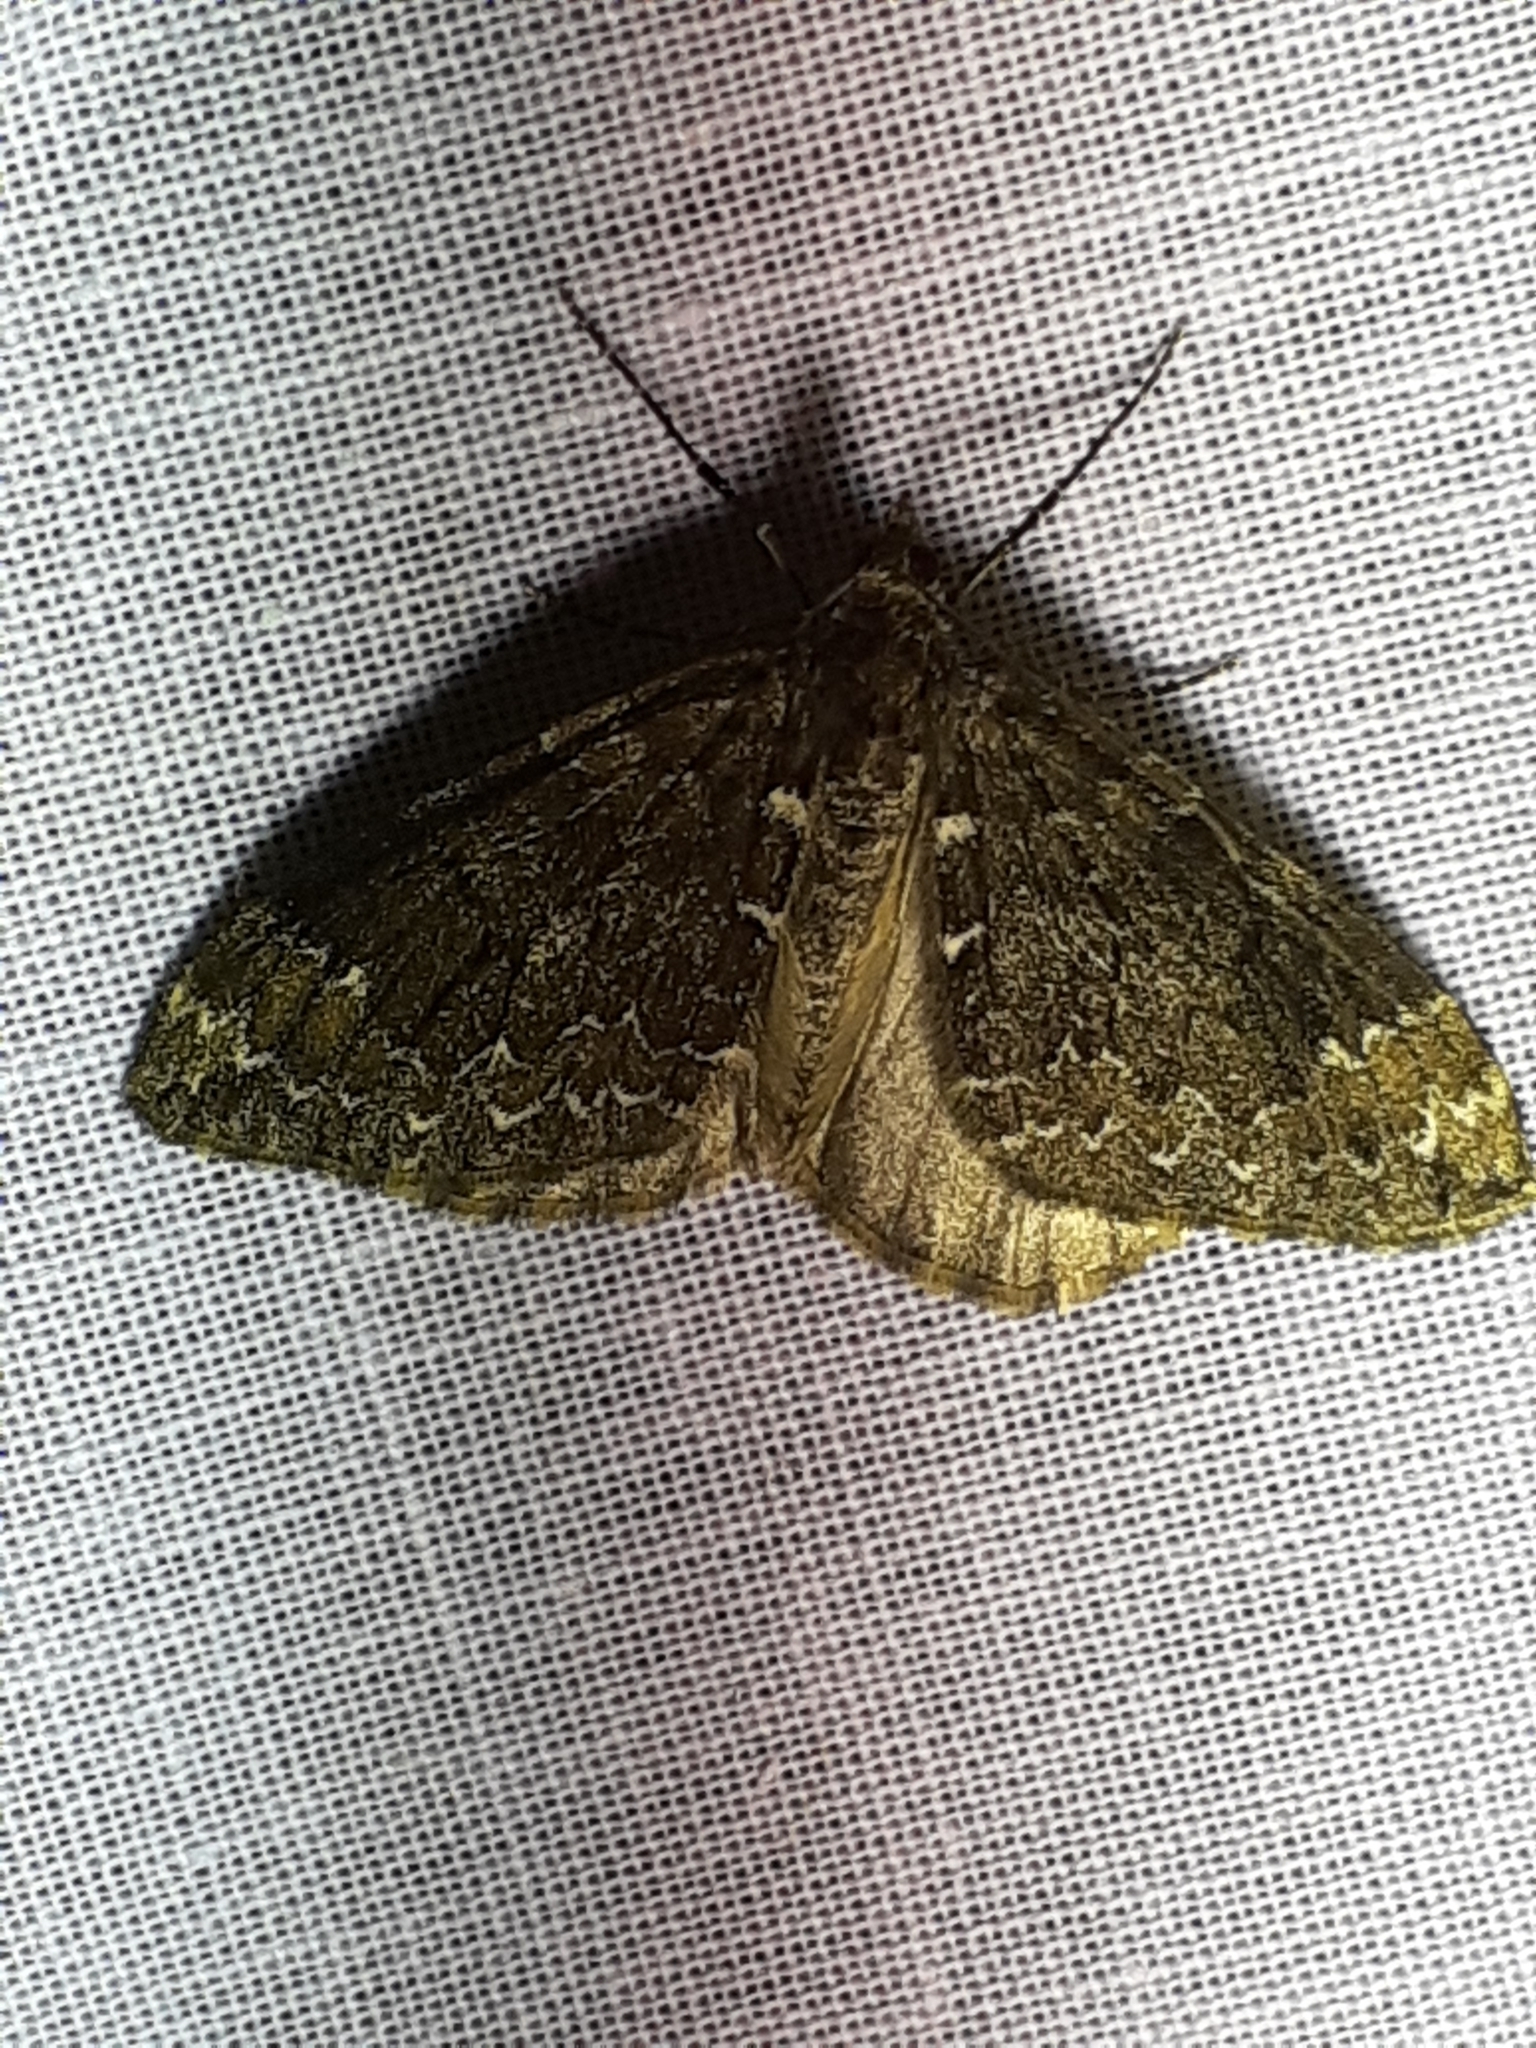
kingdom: Animalia
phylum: Arthropoda
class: Insecta
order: Lepidoptera
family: Geometridae
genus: Dysstroma
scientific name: Dysstroma truncata
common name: Common marbled carpet
